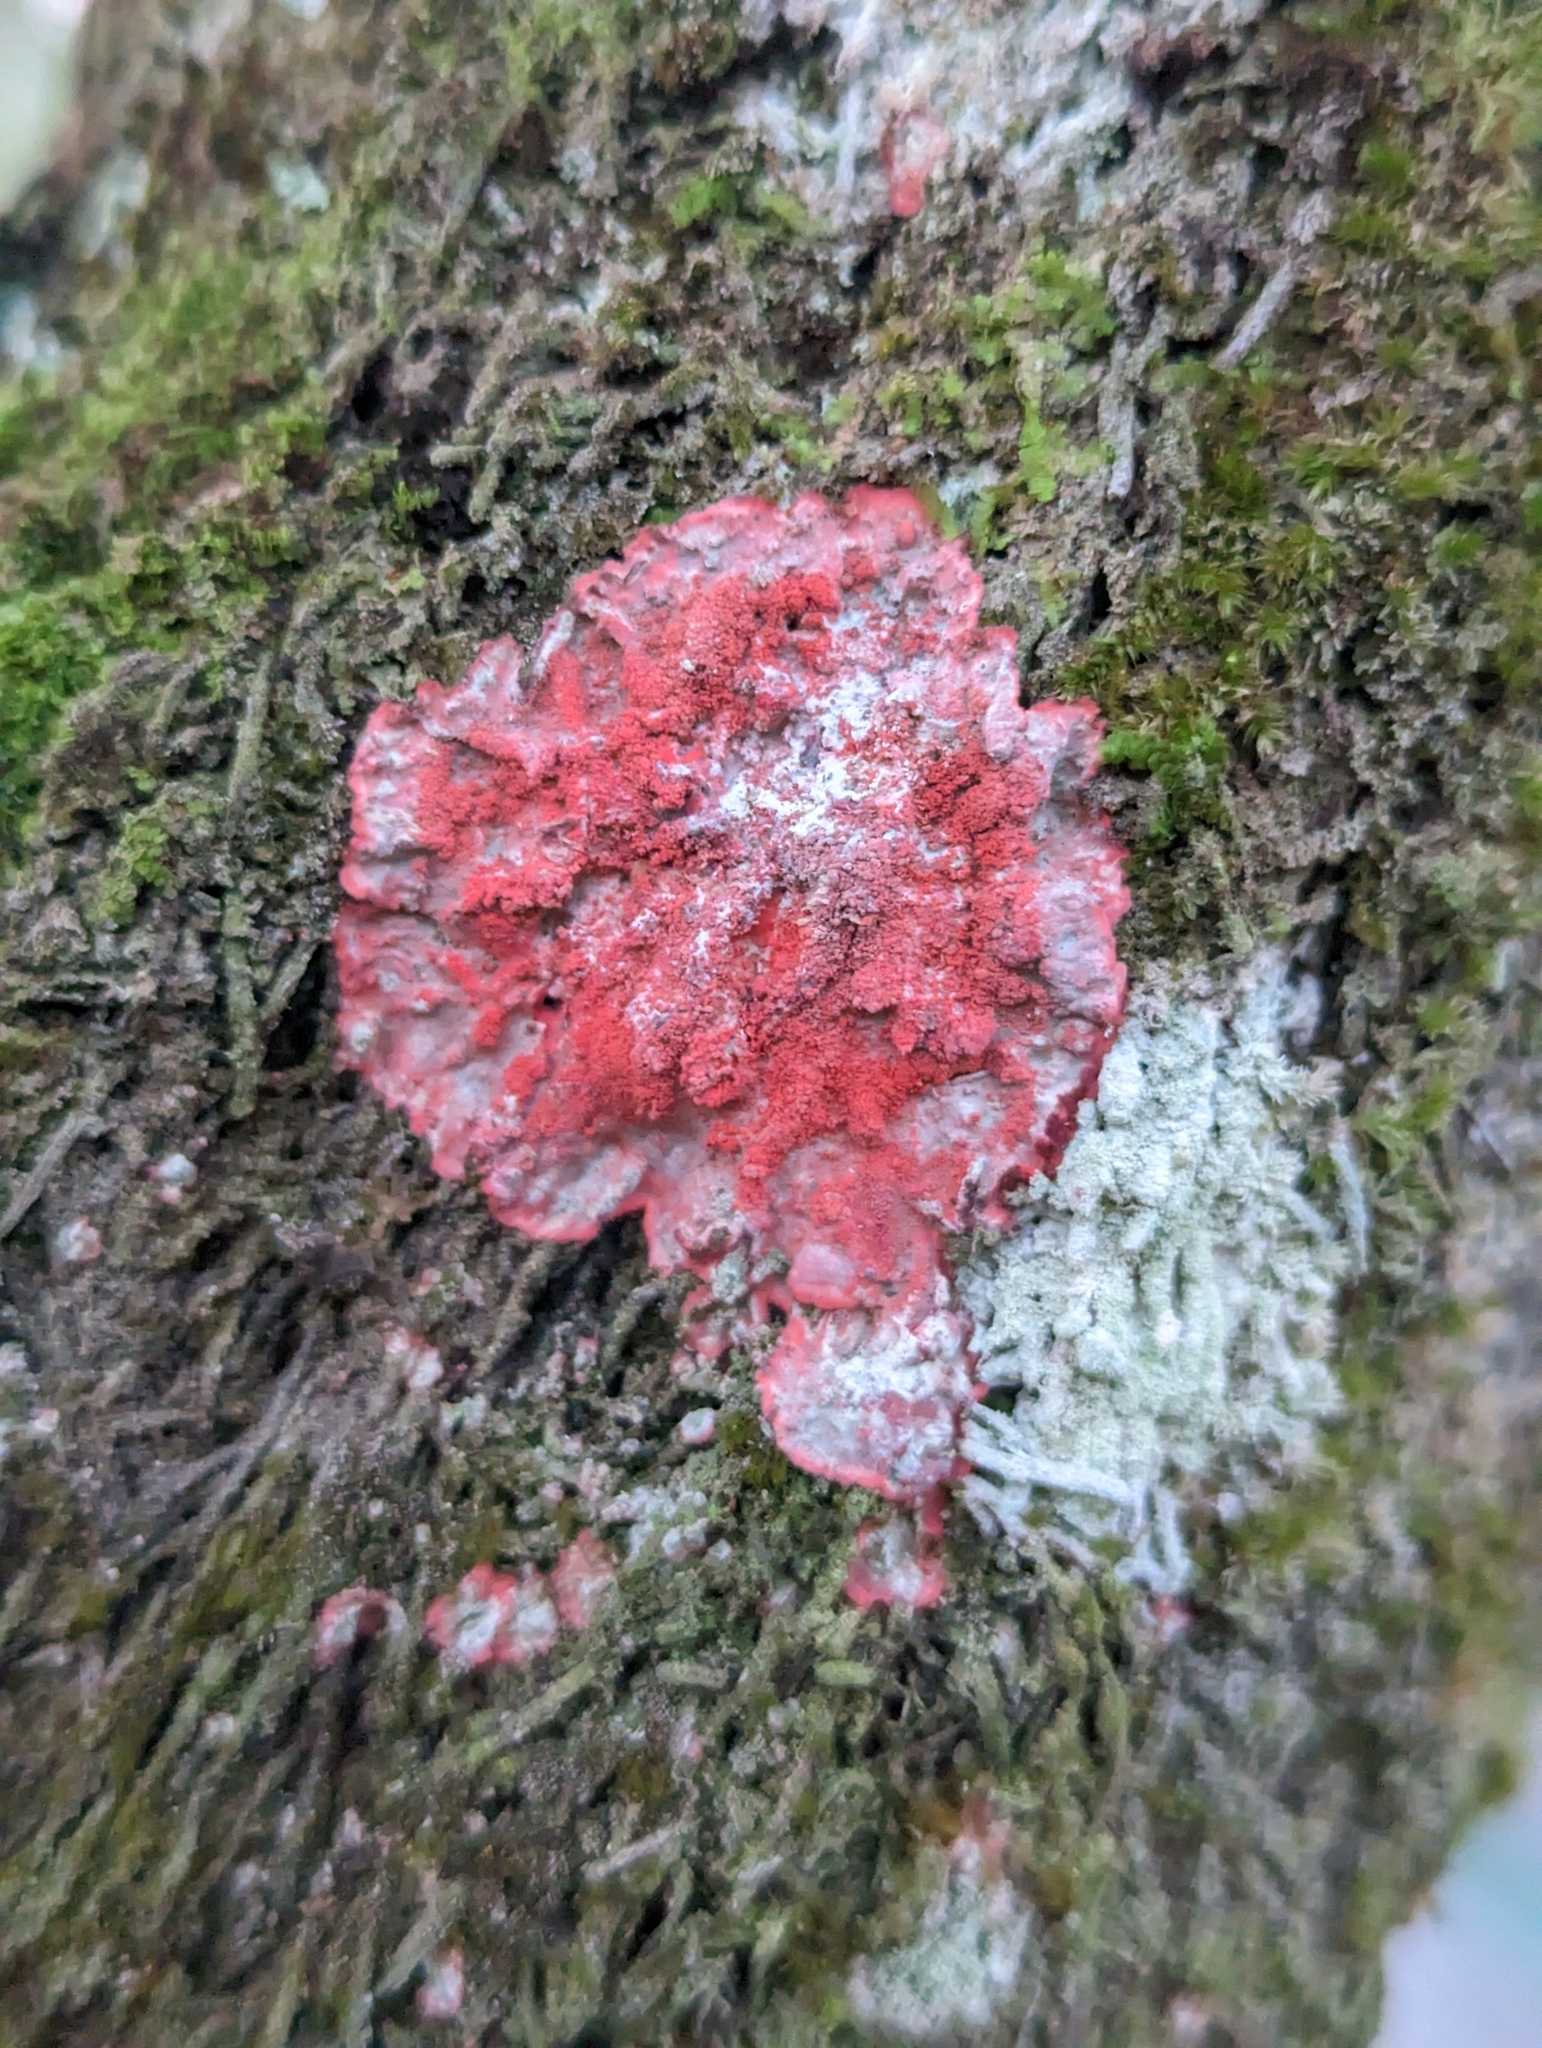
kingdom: Fungi
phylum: Ascomycota
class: Arthoniomycetes
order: Arthoniales
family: Arthoniaceae
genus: Herpothallon
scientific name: Herpothallon rubrocinctum
